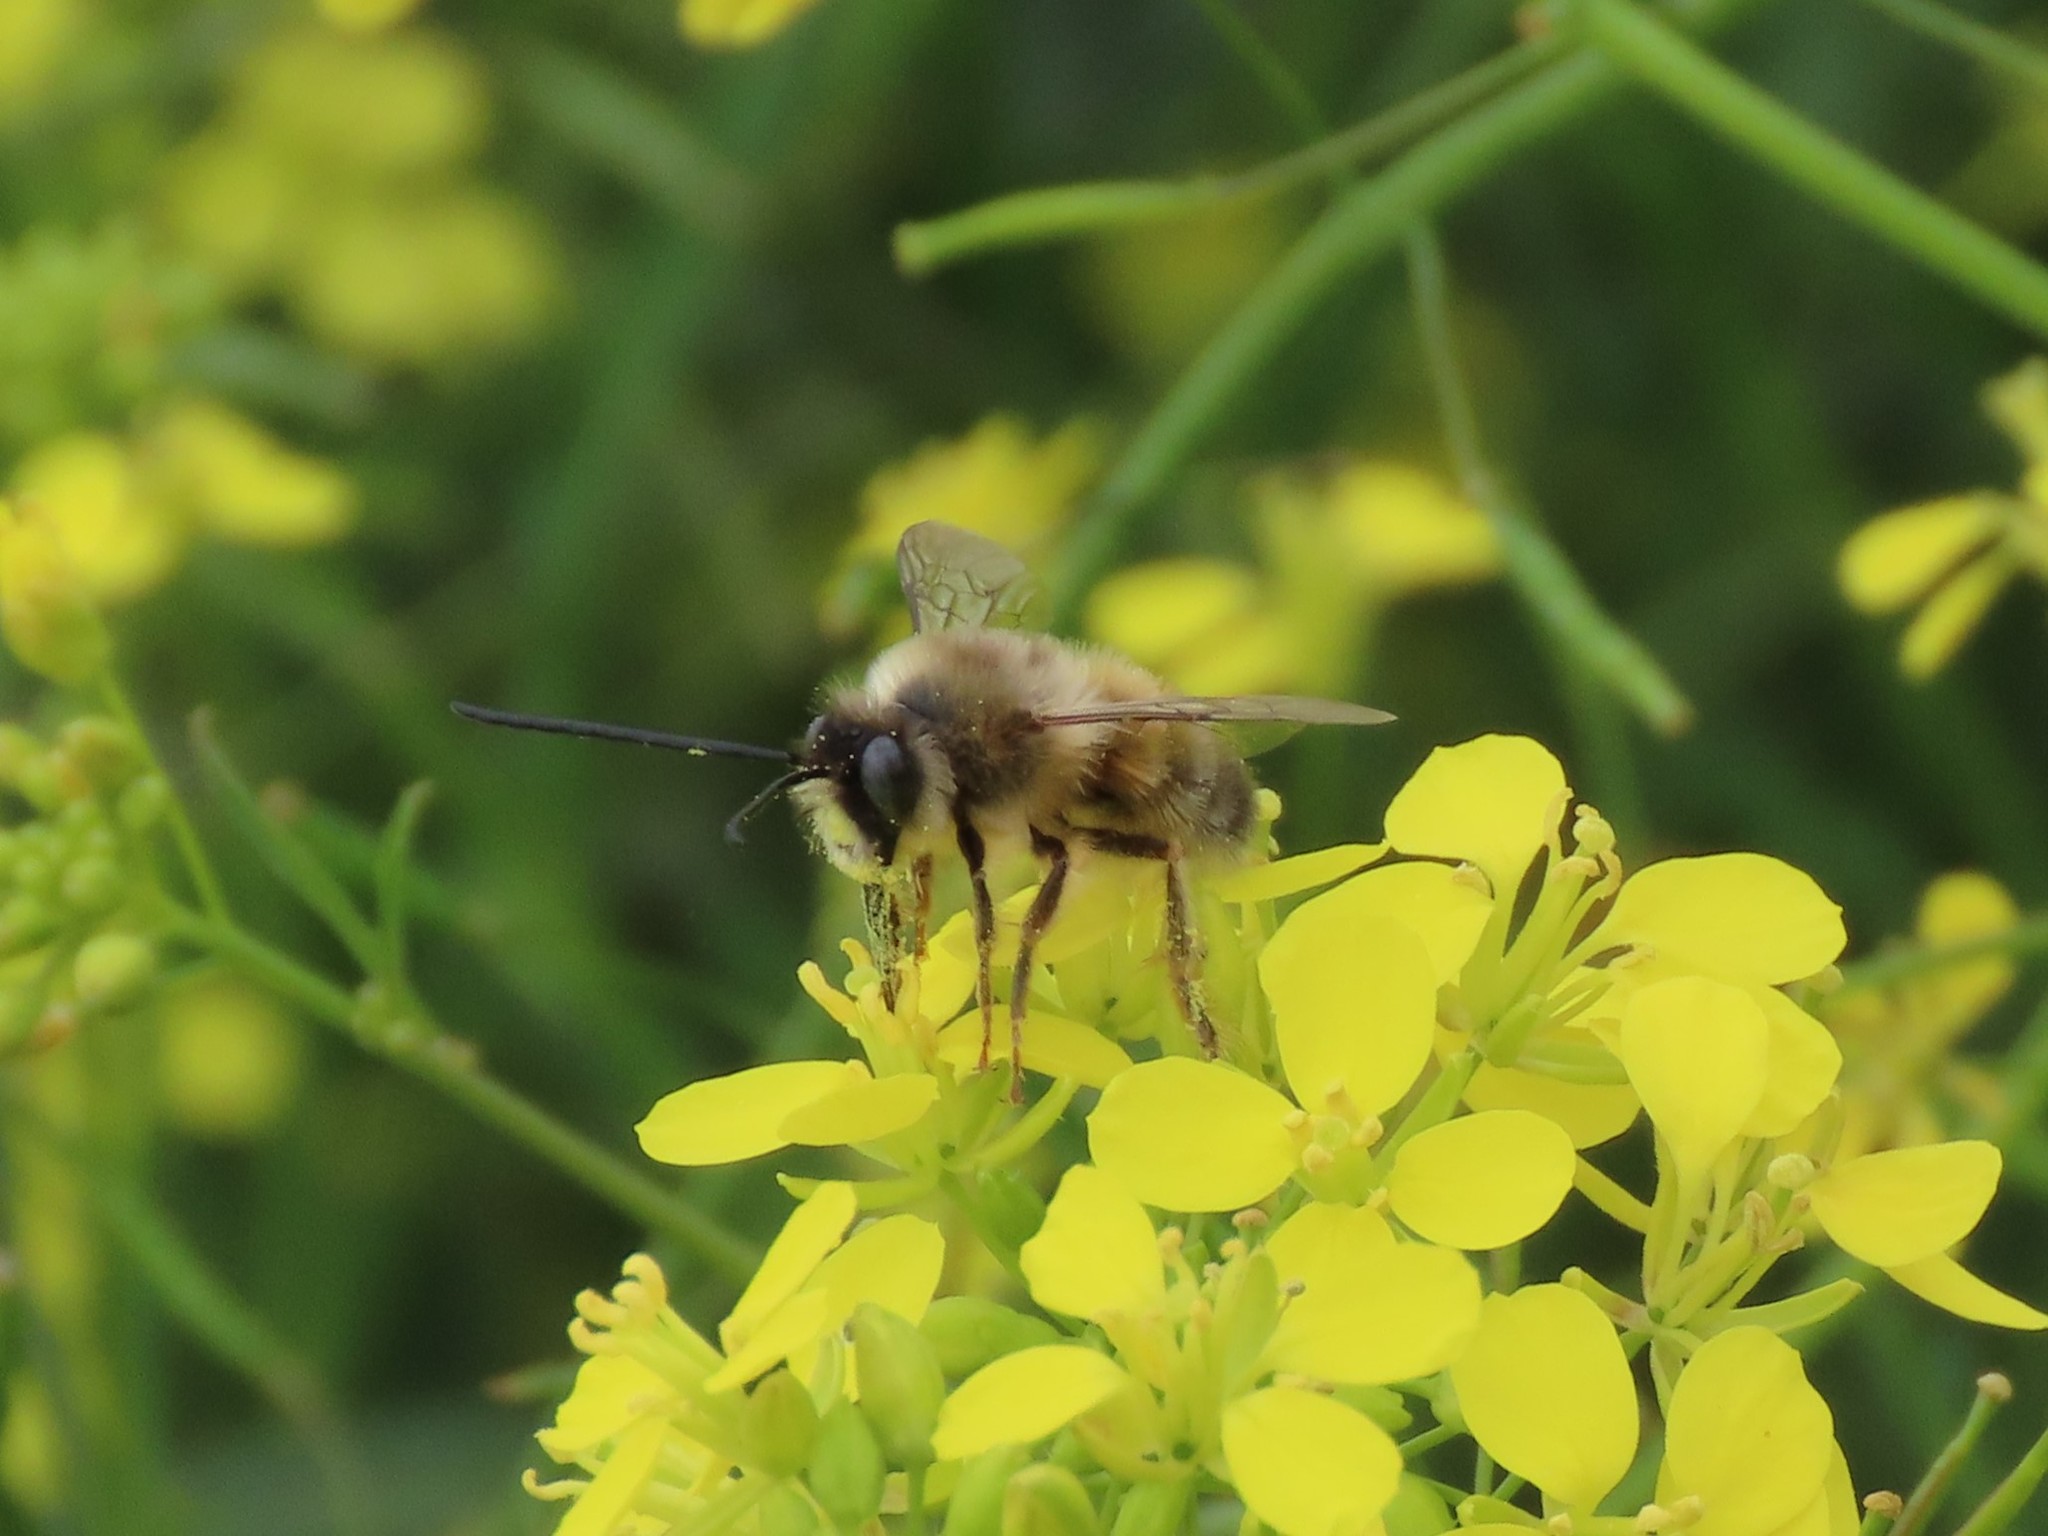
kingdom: Animalia
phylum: Arthropoda
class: Insecta
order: Hymenoptera
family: Apidae
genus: Eucera
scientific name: Eucera nigrilabris
